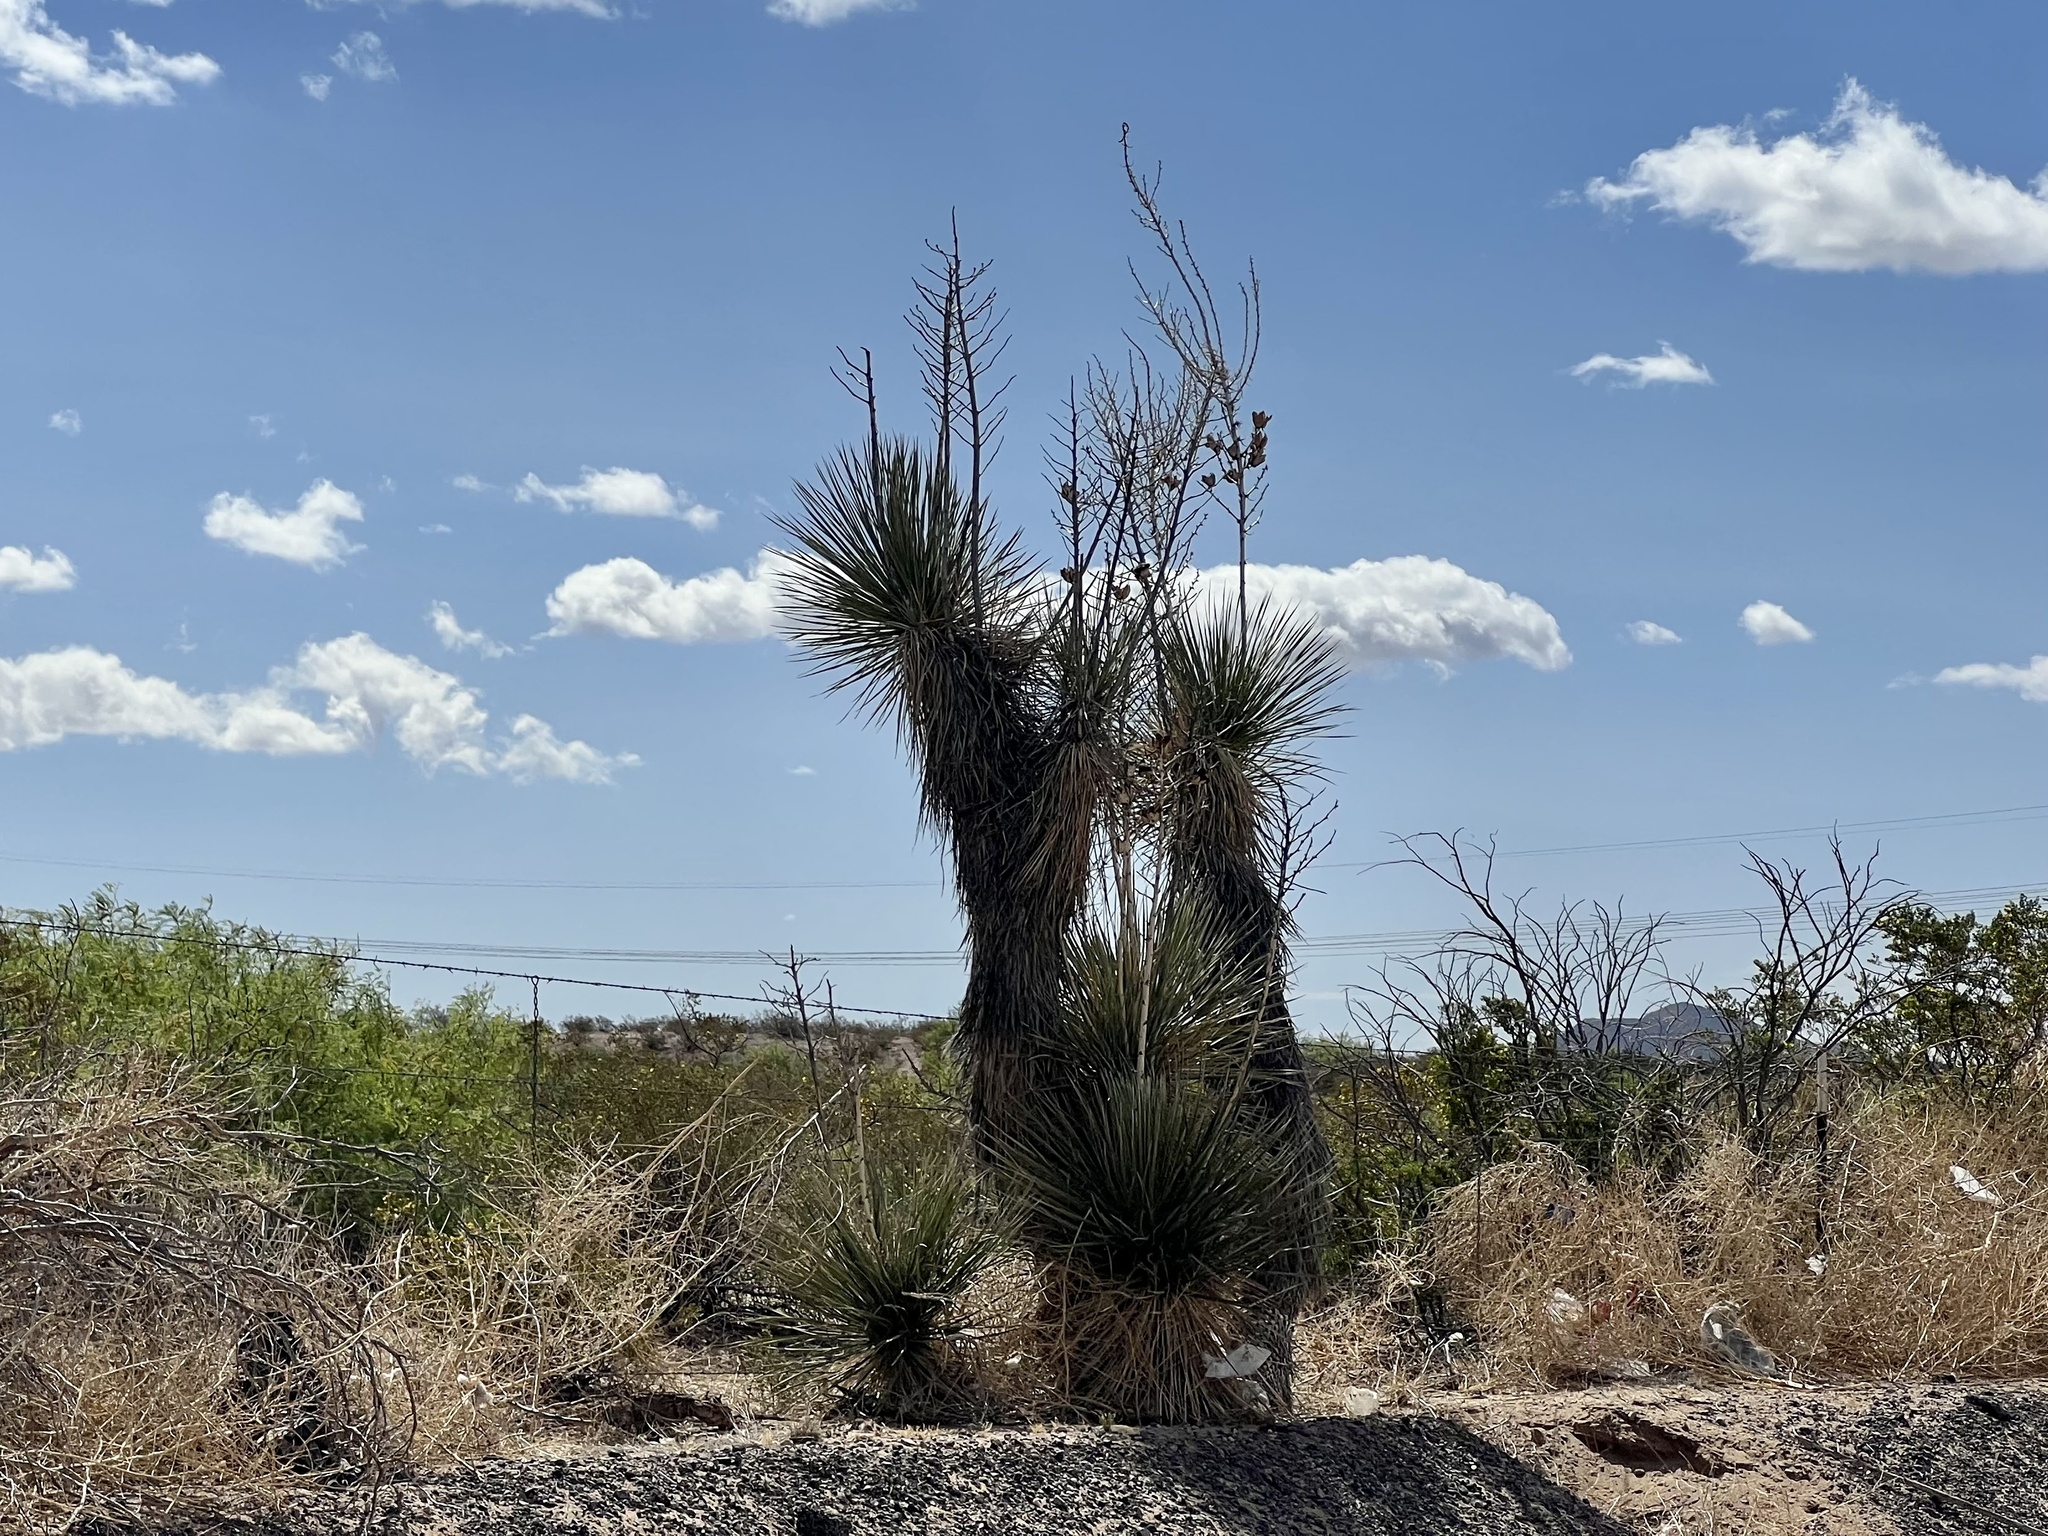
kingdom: Plantae
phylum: Tracheophyta
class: Liliopsida
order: Asparagales
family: Asparagaceae
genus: Yucca
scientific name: Yucca elata
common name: Palmella
